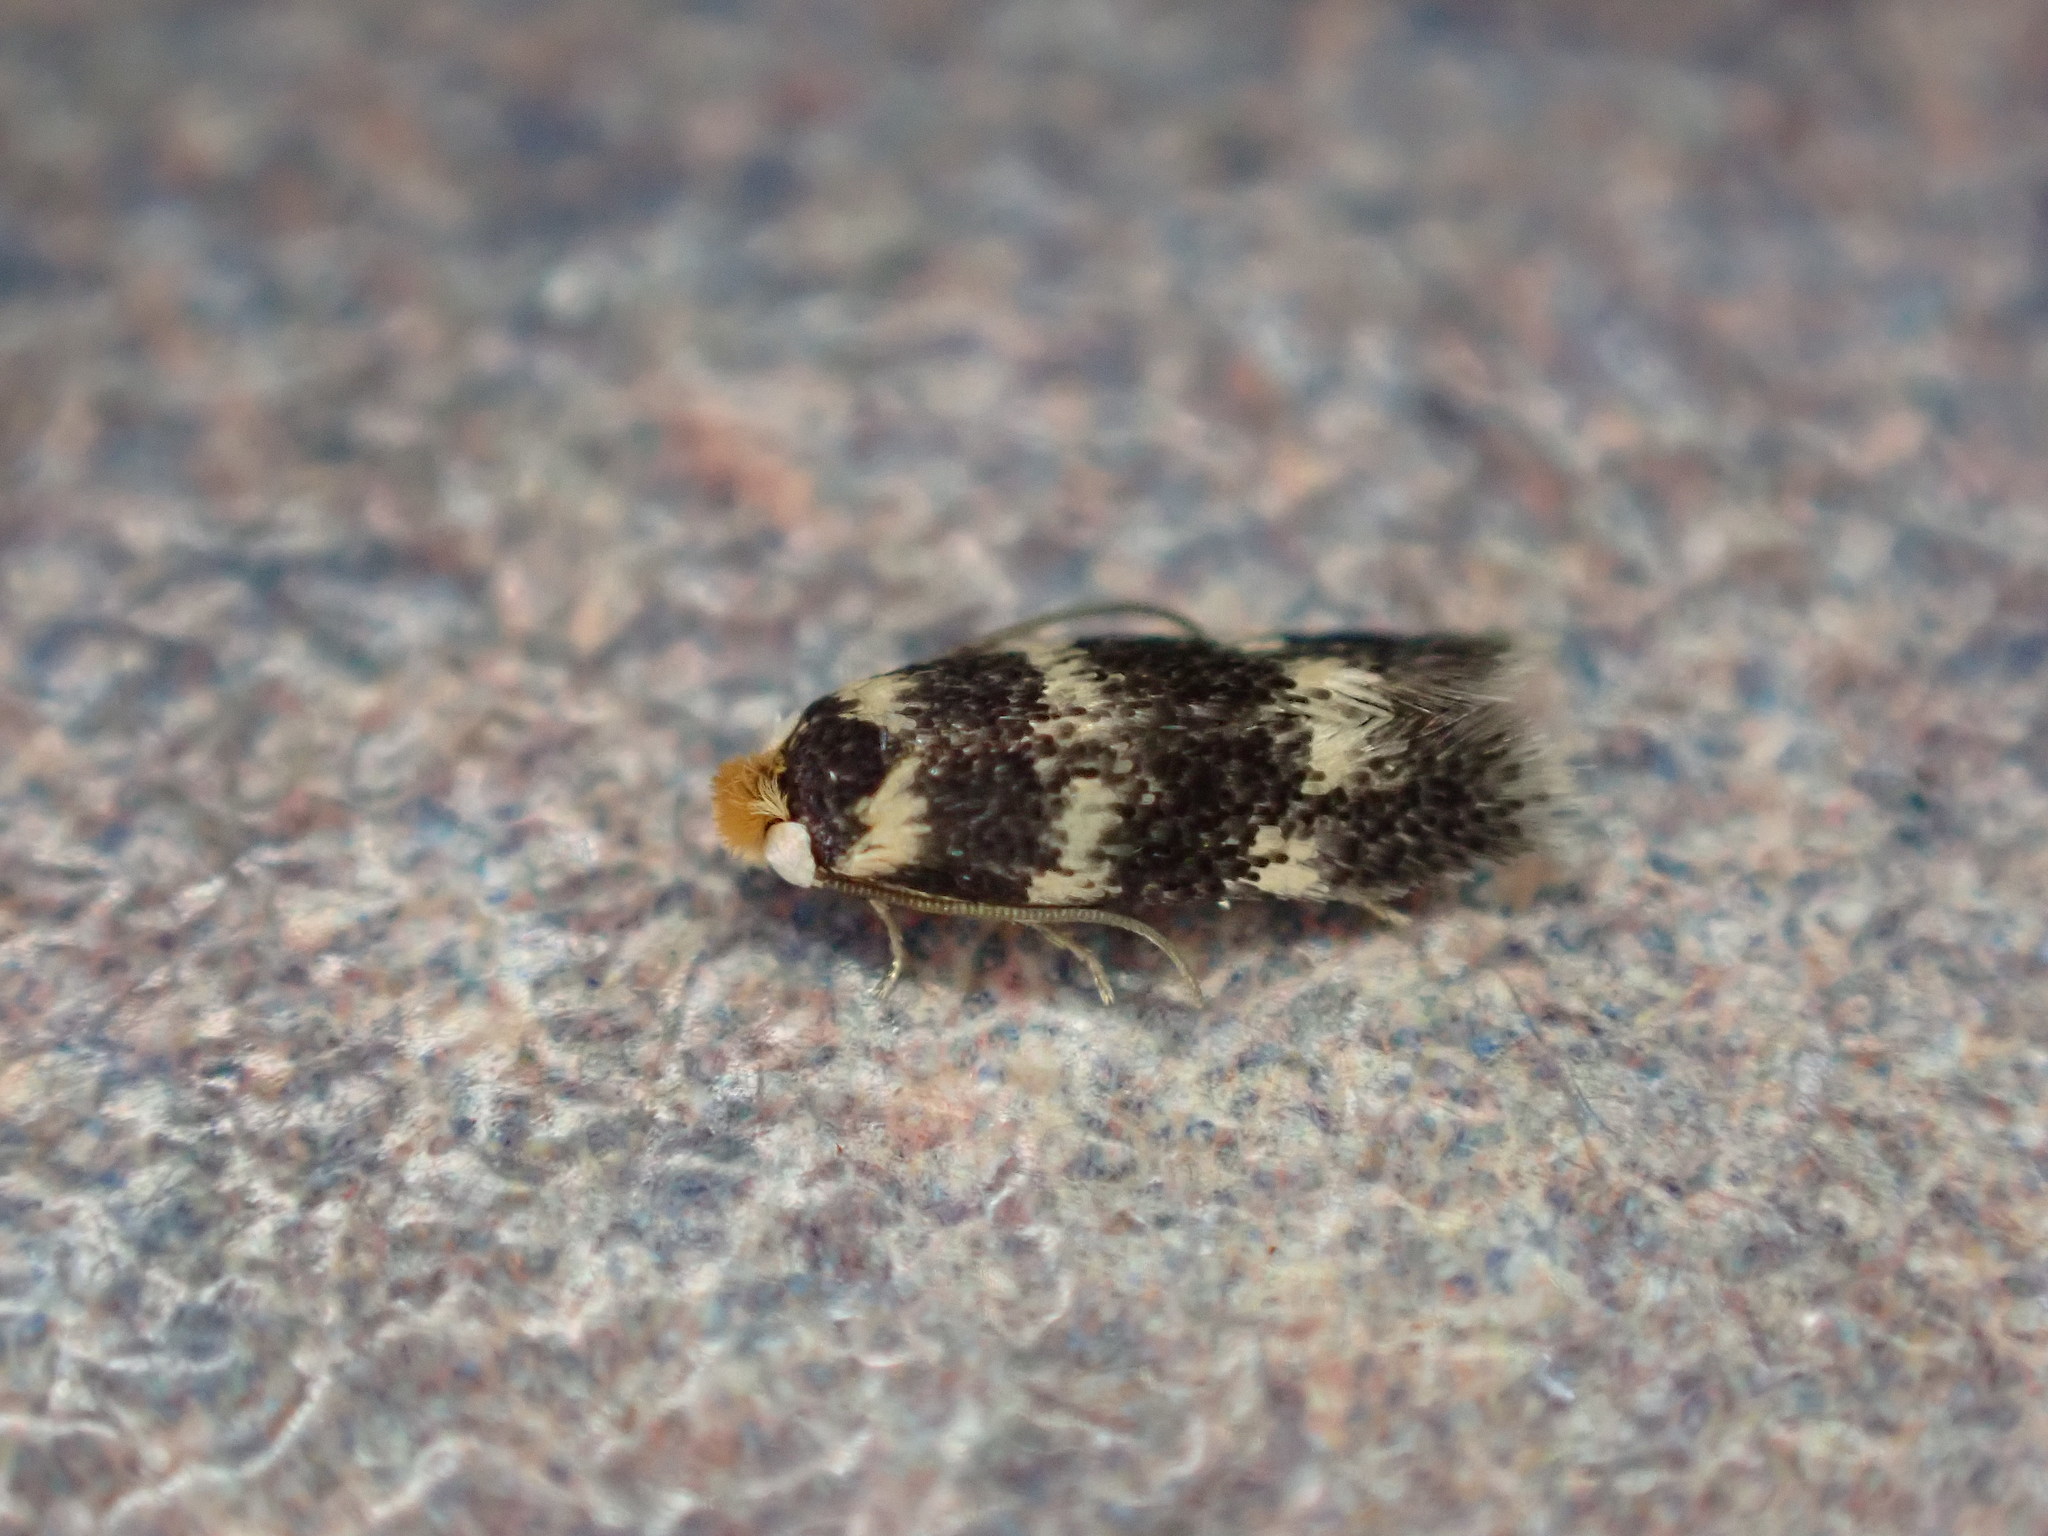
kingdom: Animalia
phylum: Arthropoda
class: Insecta
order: Lepidoptera
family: Autostichidae
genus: Oegoconia
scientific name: Oegoconia quadripuncta
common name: Four-spotted obscure
